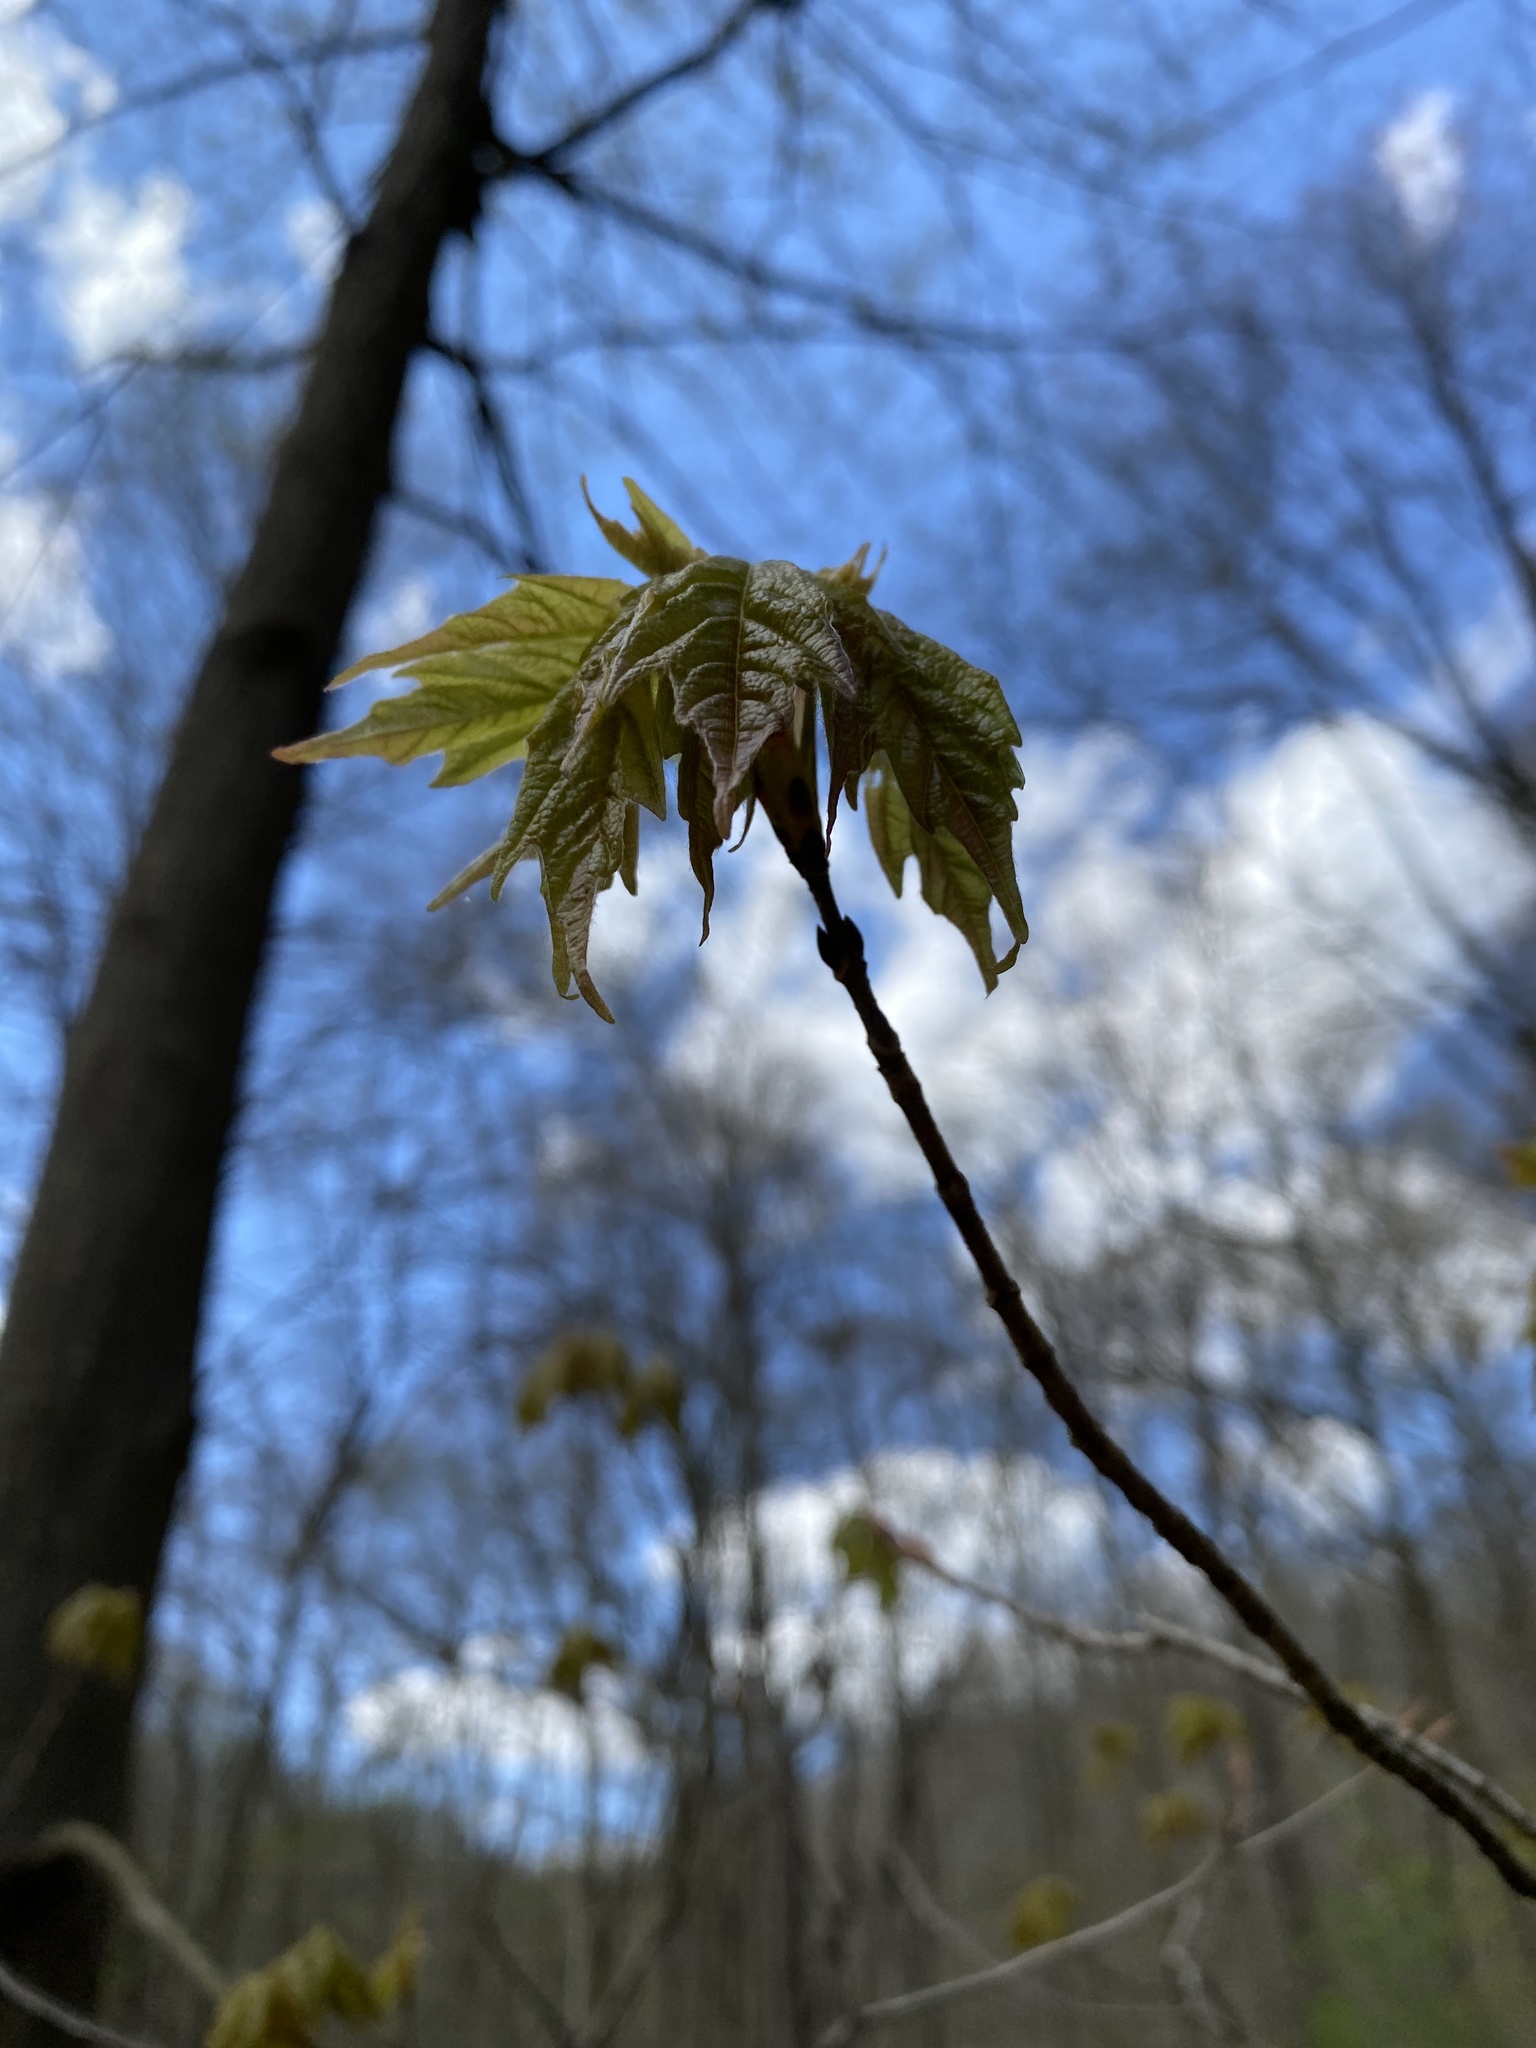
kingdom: Plantae
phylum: Tracheophyta
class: Magnoliopsida
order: Sapindales
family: Sapindaceae
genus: Acer
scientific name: Acer saccharum
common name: Sugar maple
